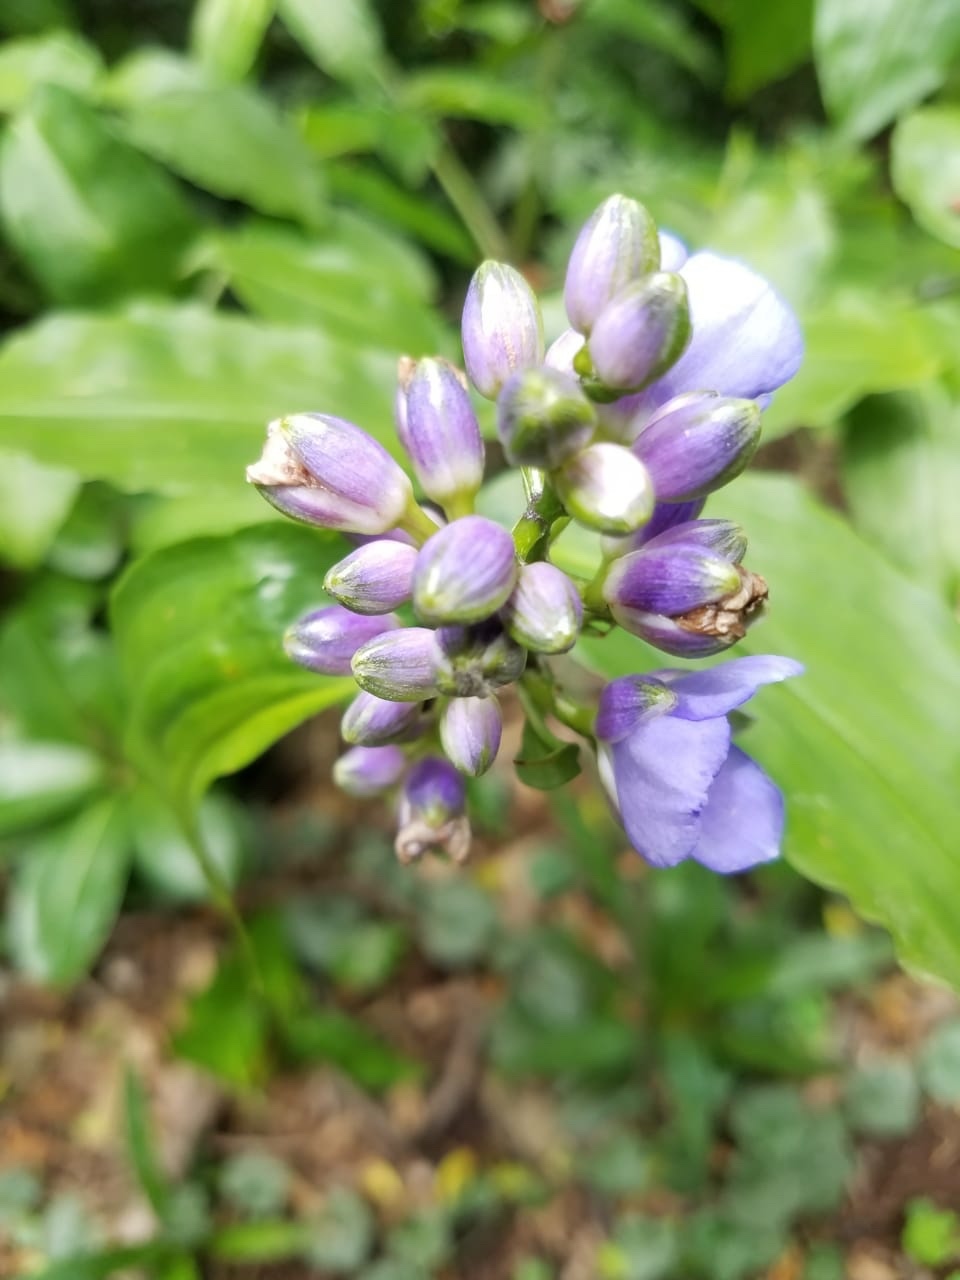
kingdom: Plantae
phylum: Tracheophyta
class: Liliopsida
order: Commelinales
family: Commelinaceae
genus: Dichorisandra
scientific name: Dichorisandra amabilis
